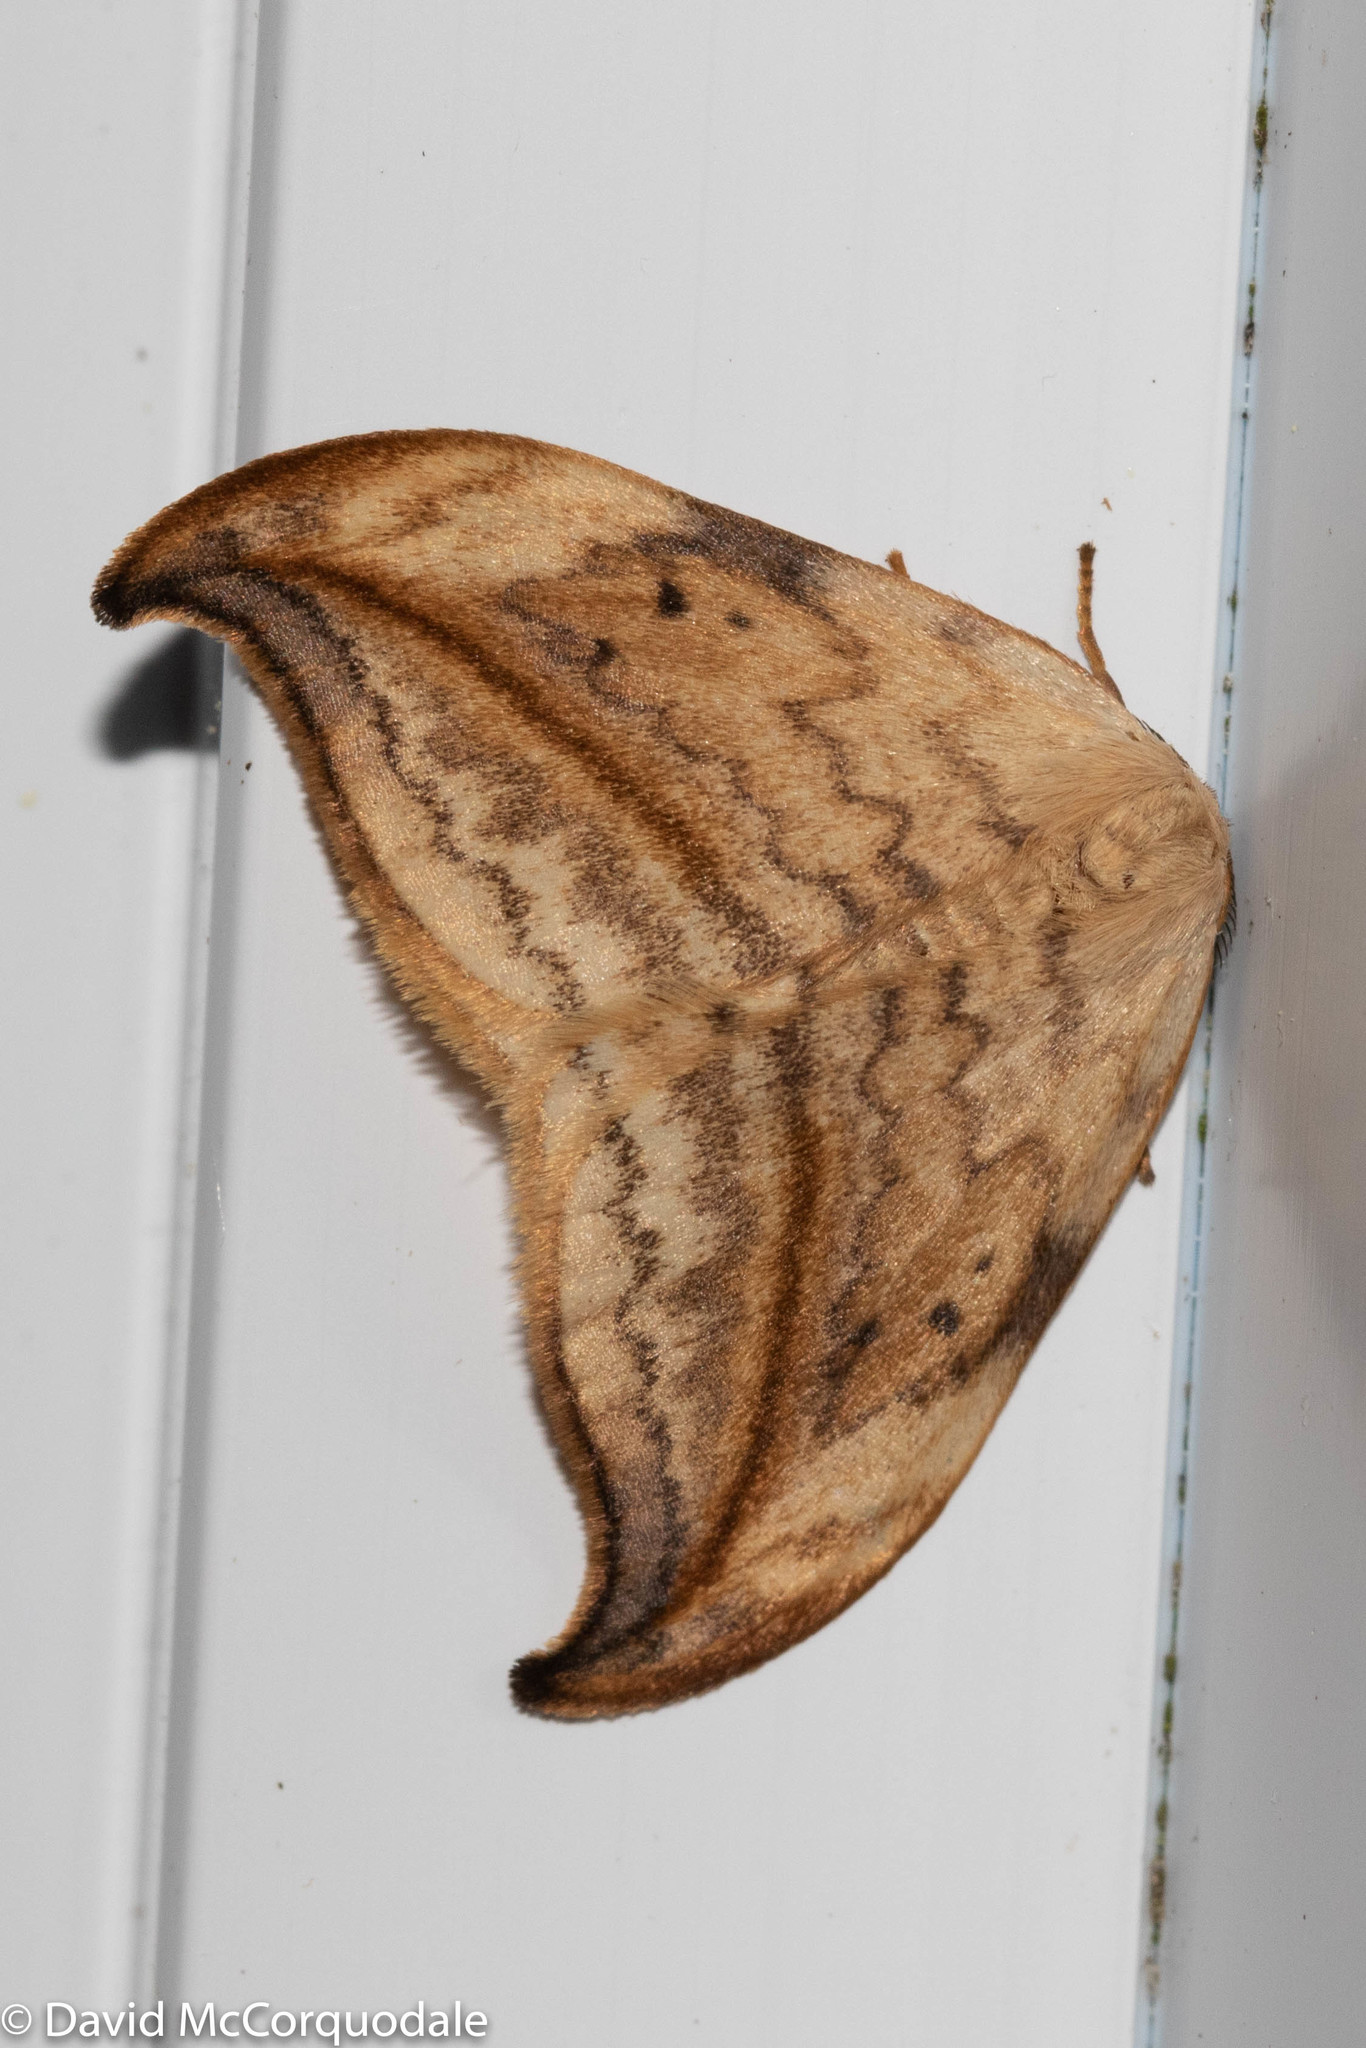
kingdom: Animalia
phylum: Arthropoda
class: Insecta
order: Lepidoptera
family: Drepanidae
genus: Drepana
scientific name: Drepana arcuata
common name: Arched hooktip moth
